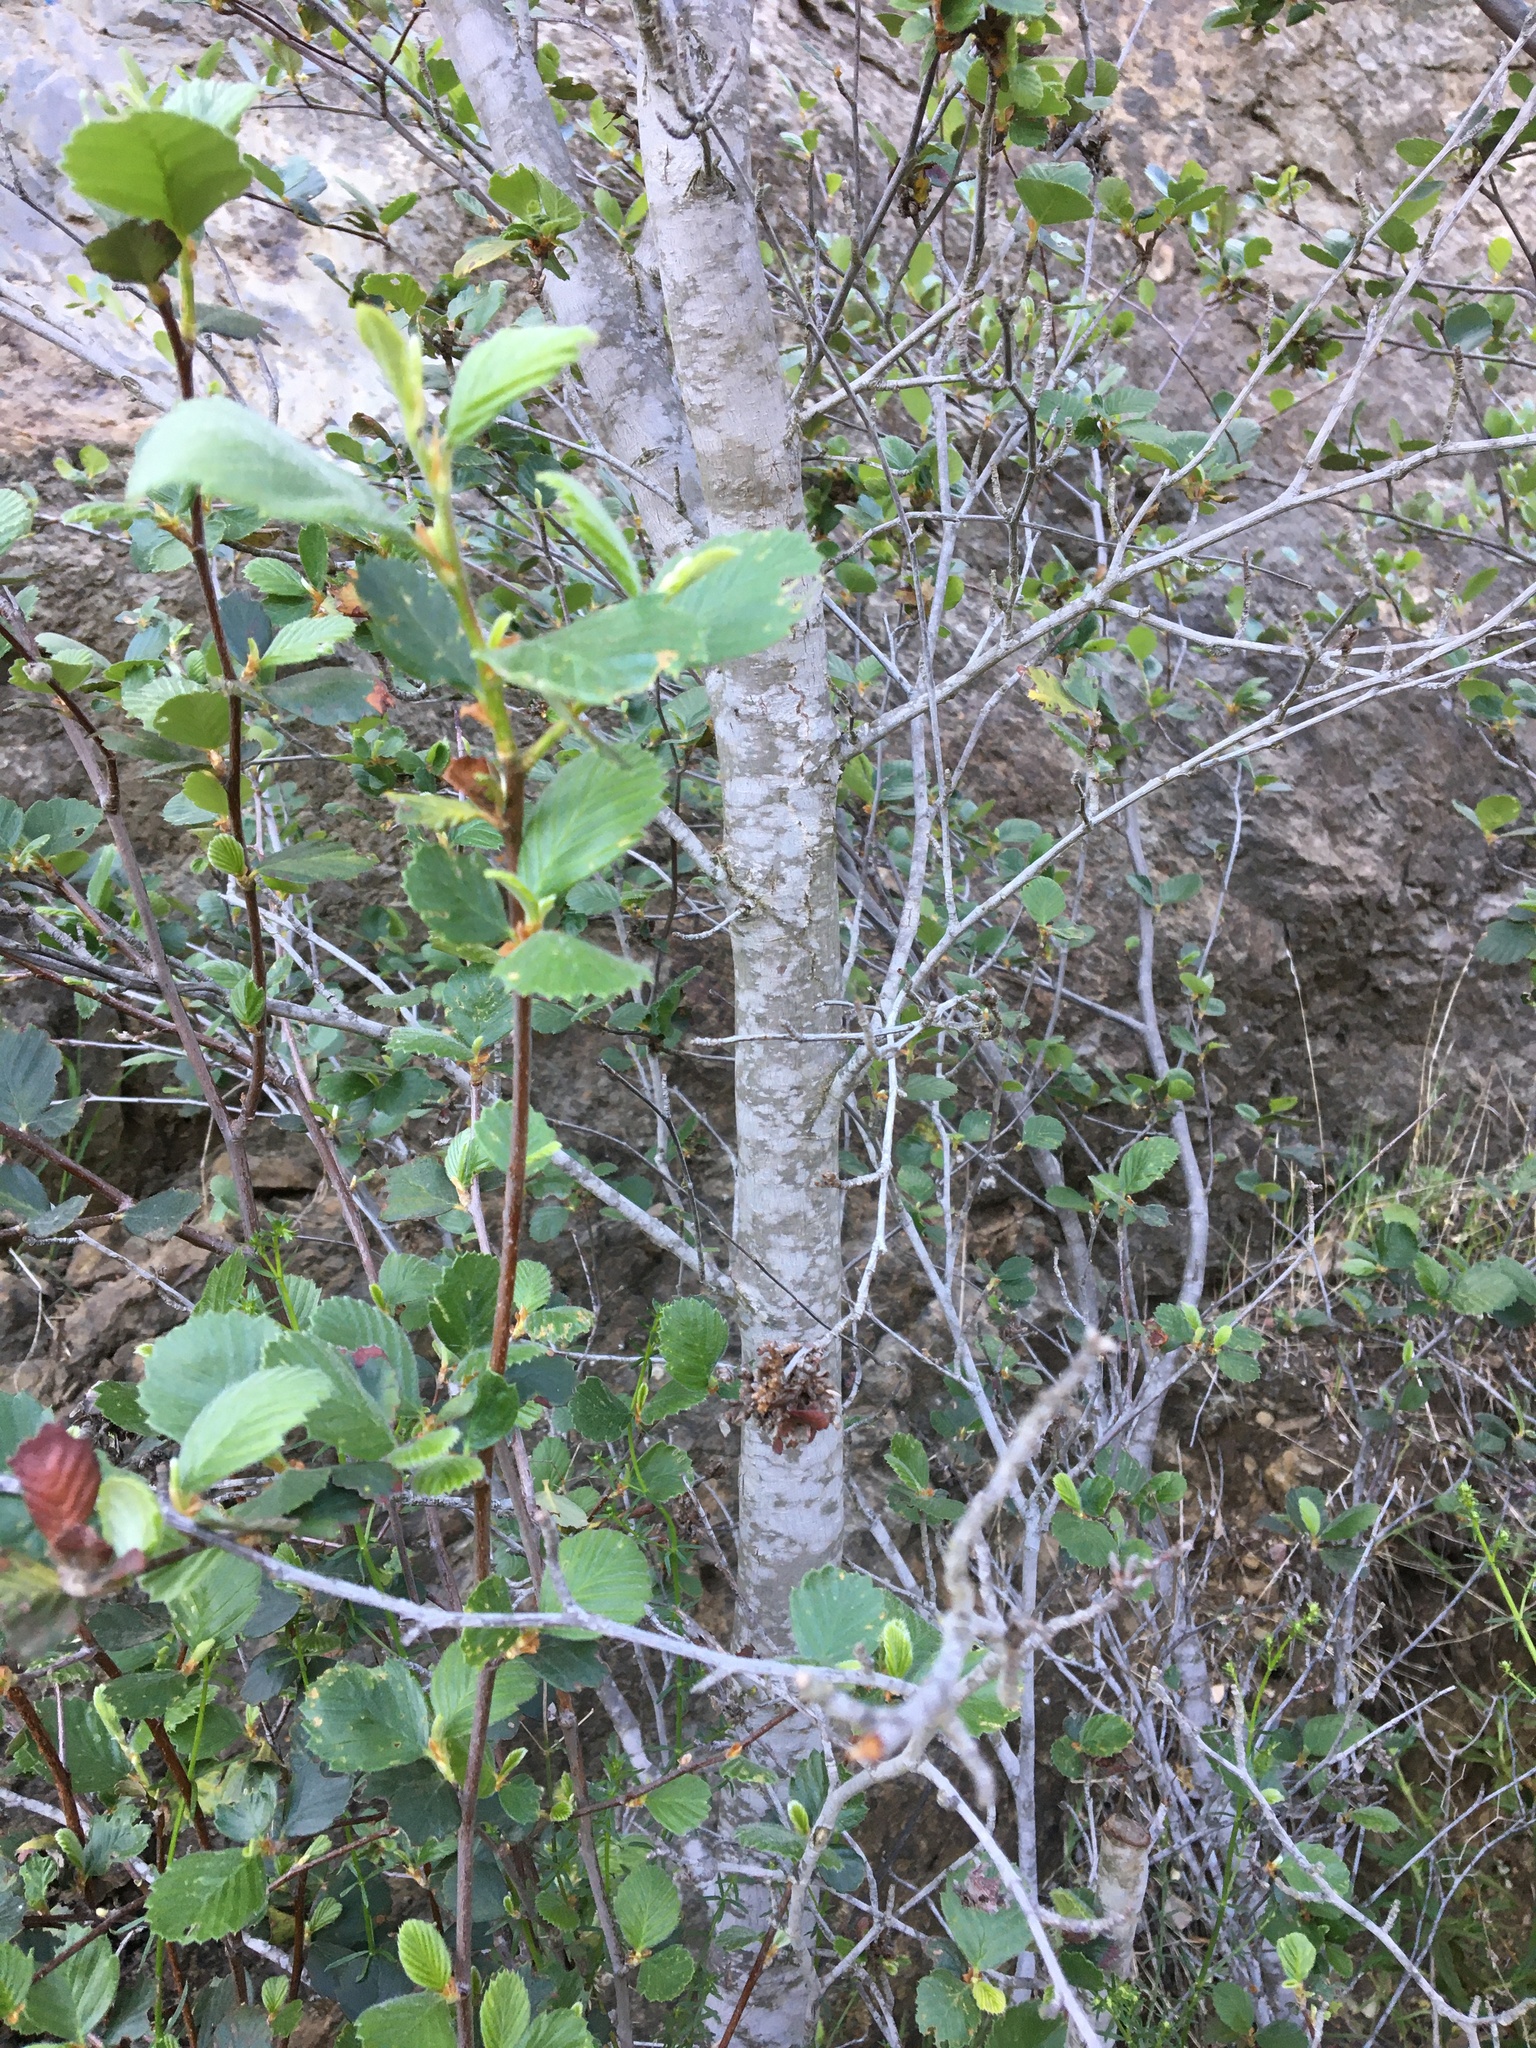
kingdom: Plantae
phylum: Tracheophyta
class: Magnoliopsida
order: Rosales
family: Rosaceae
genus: Cercocarpus
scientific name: Cercocarpus betuloides
